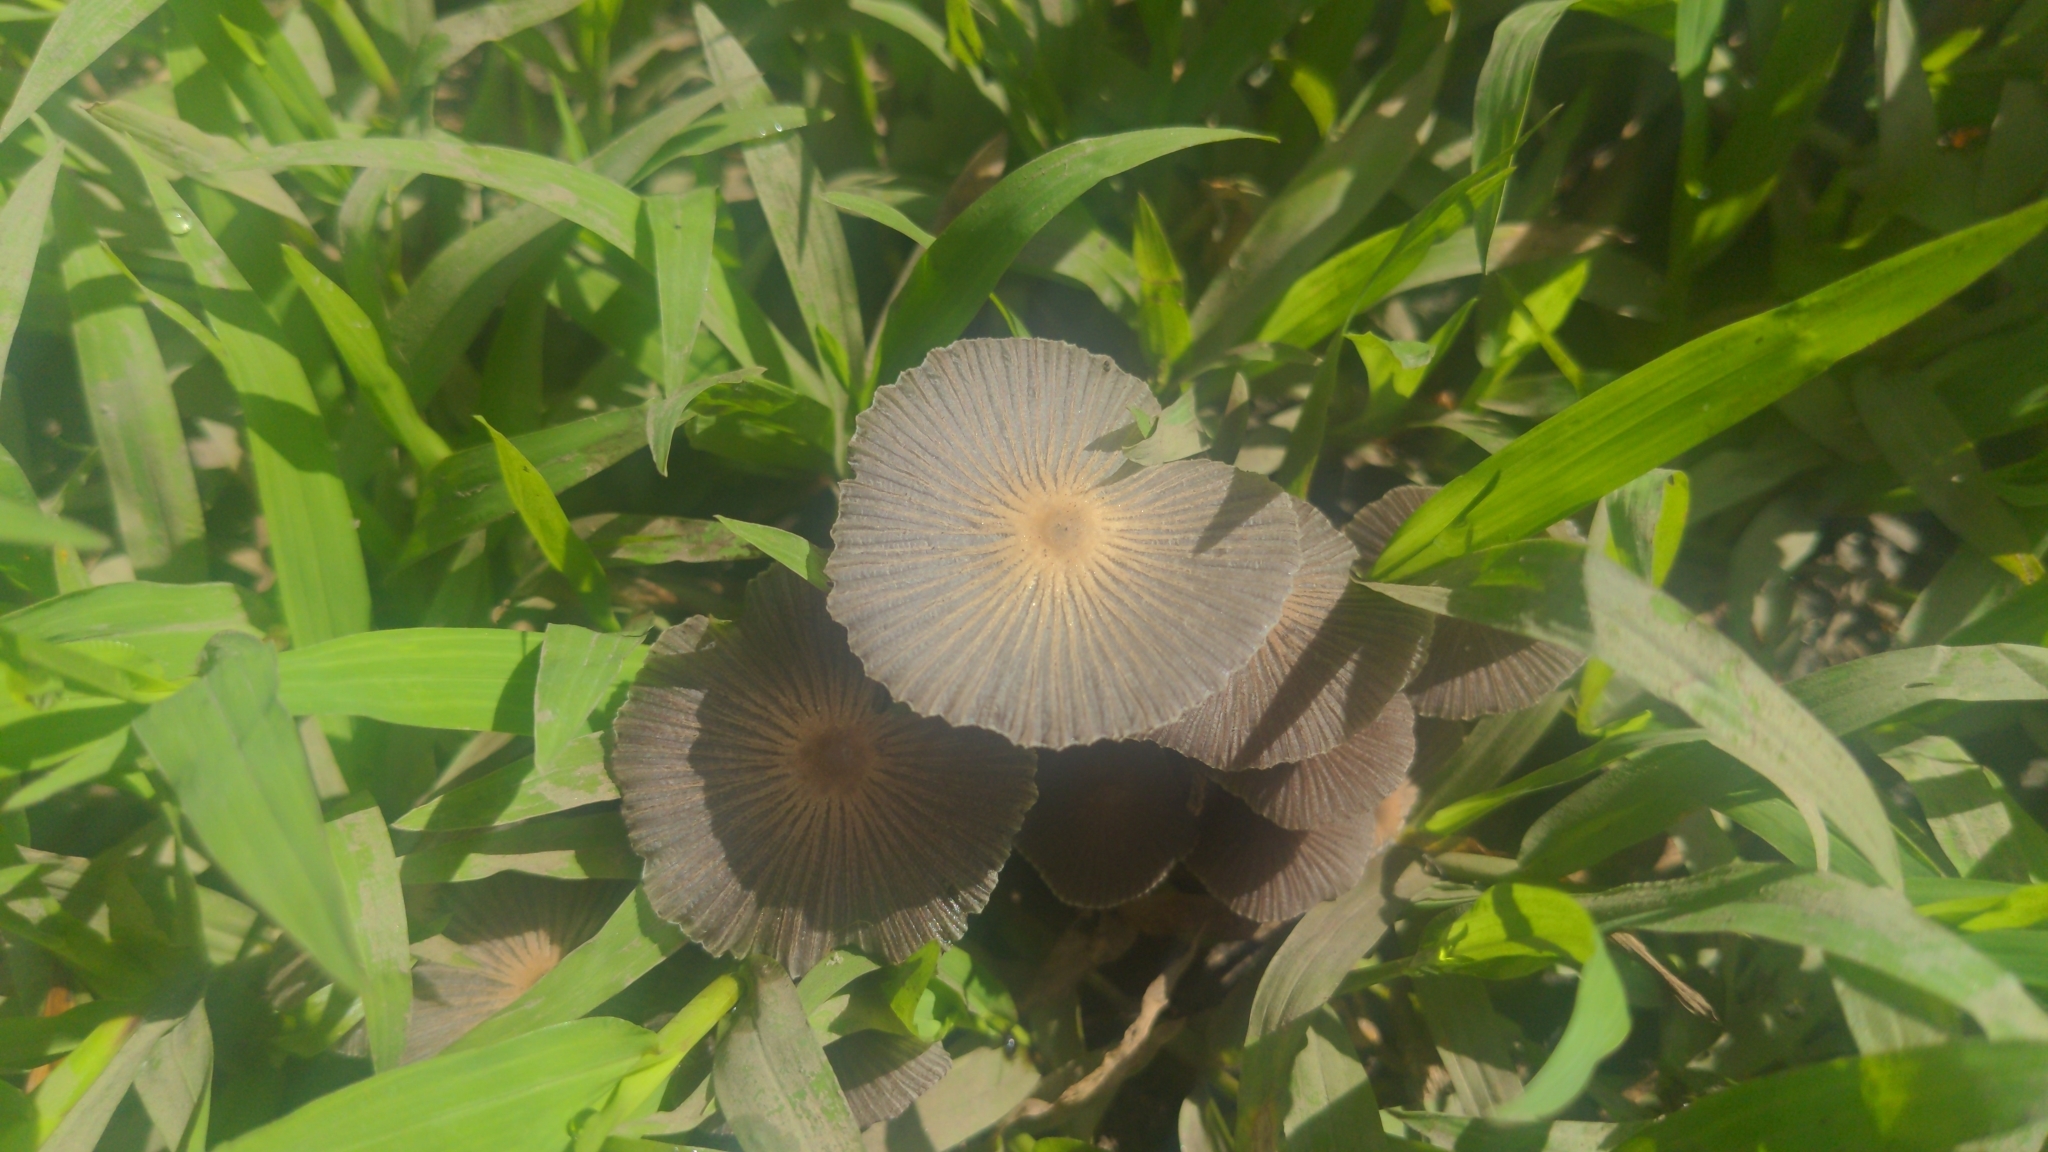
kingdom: Fungi
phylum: Basidiomycota
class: Agaricomycetes
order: Agaricales
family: Psathyrellaceae
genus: Parasola
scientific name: Parasola plicatilis
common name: Pleated inkcap
